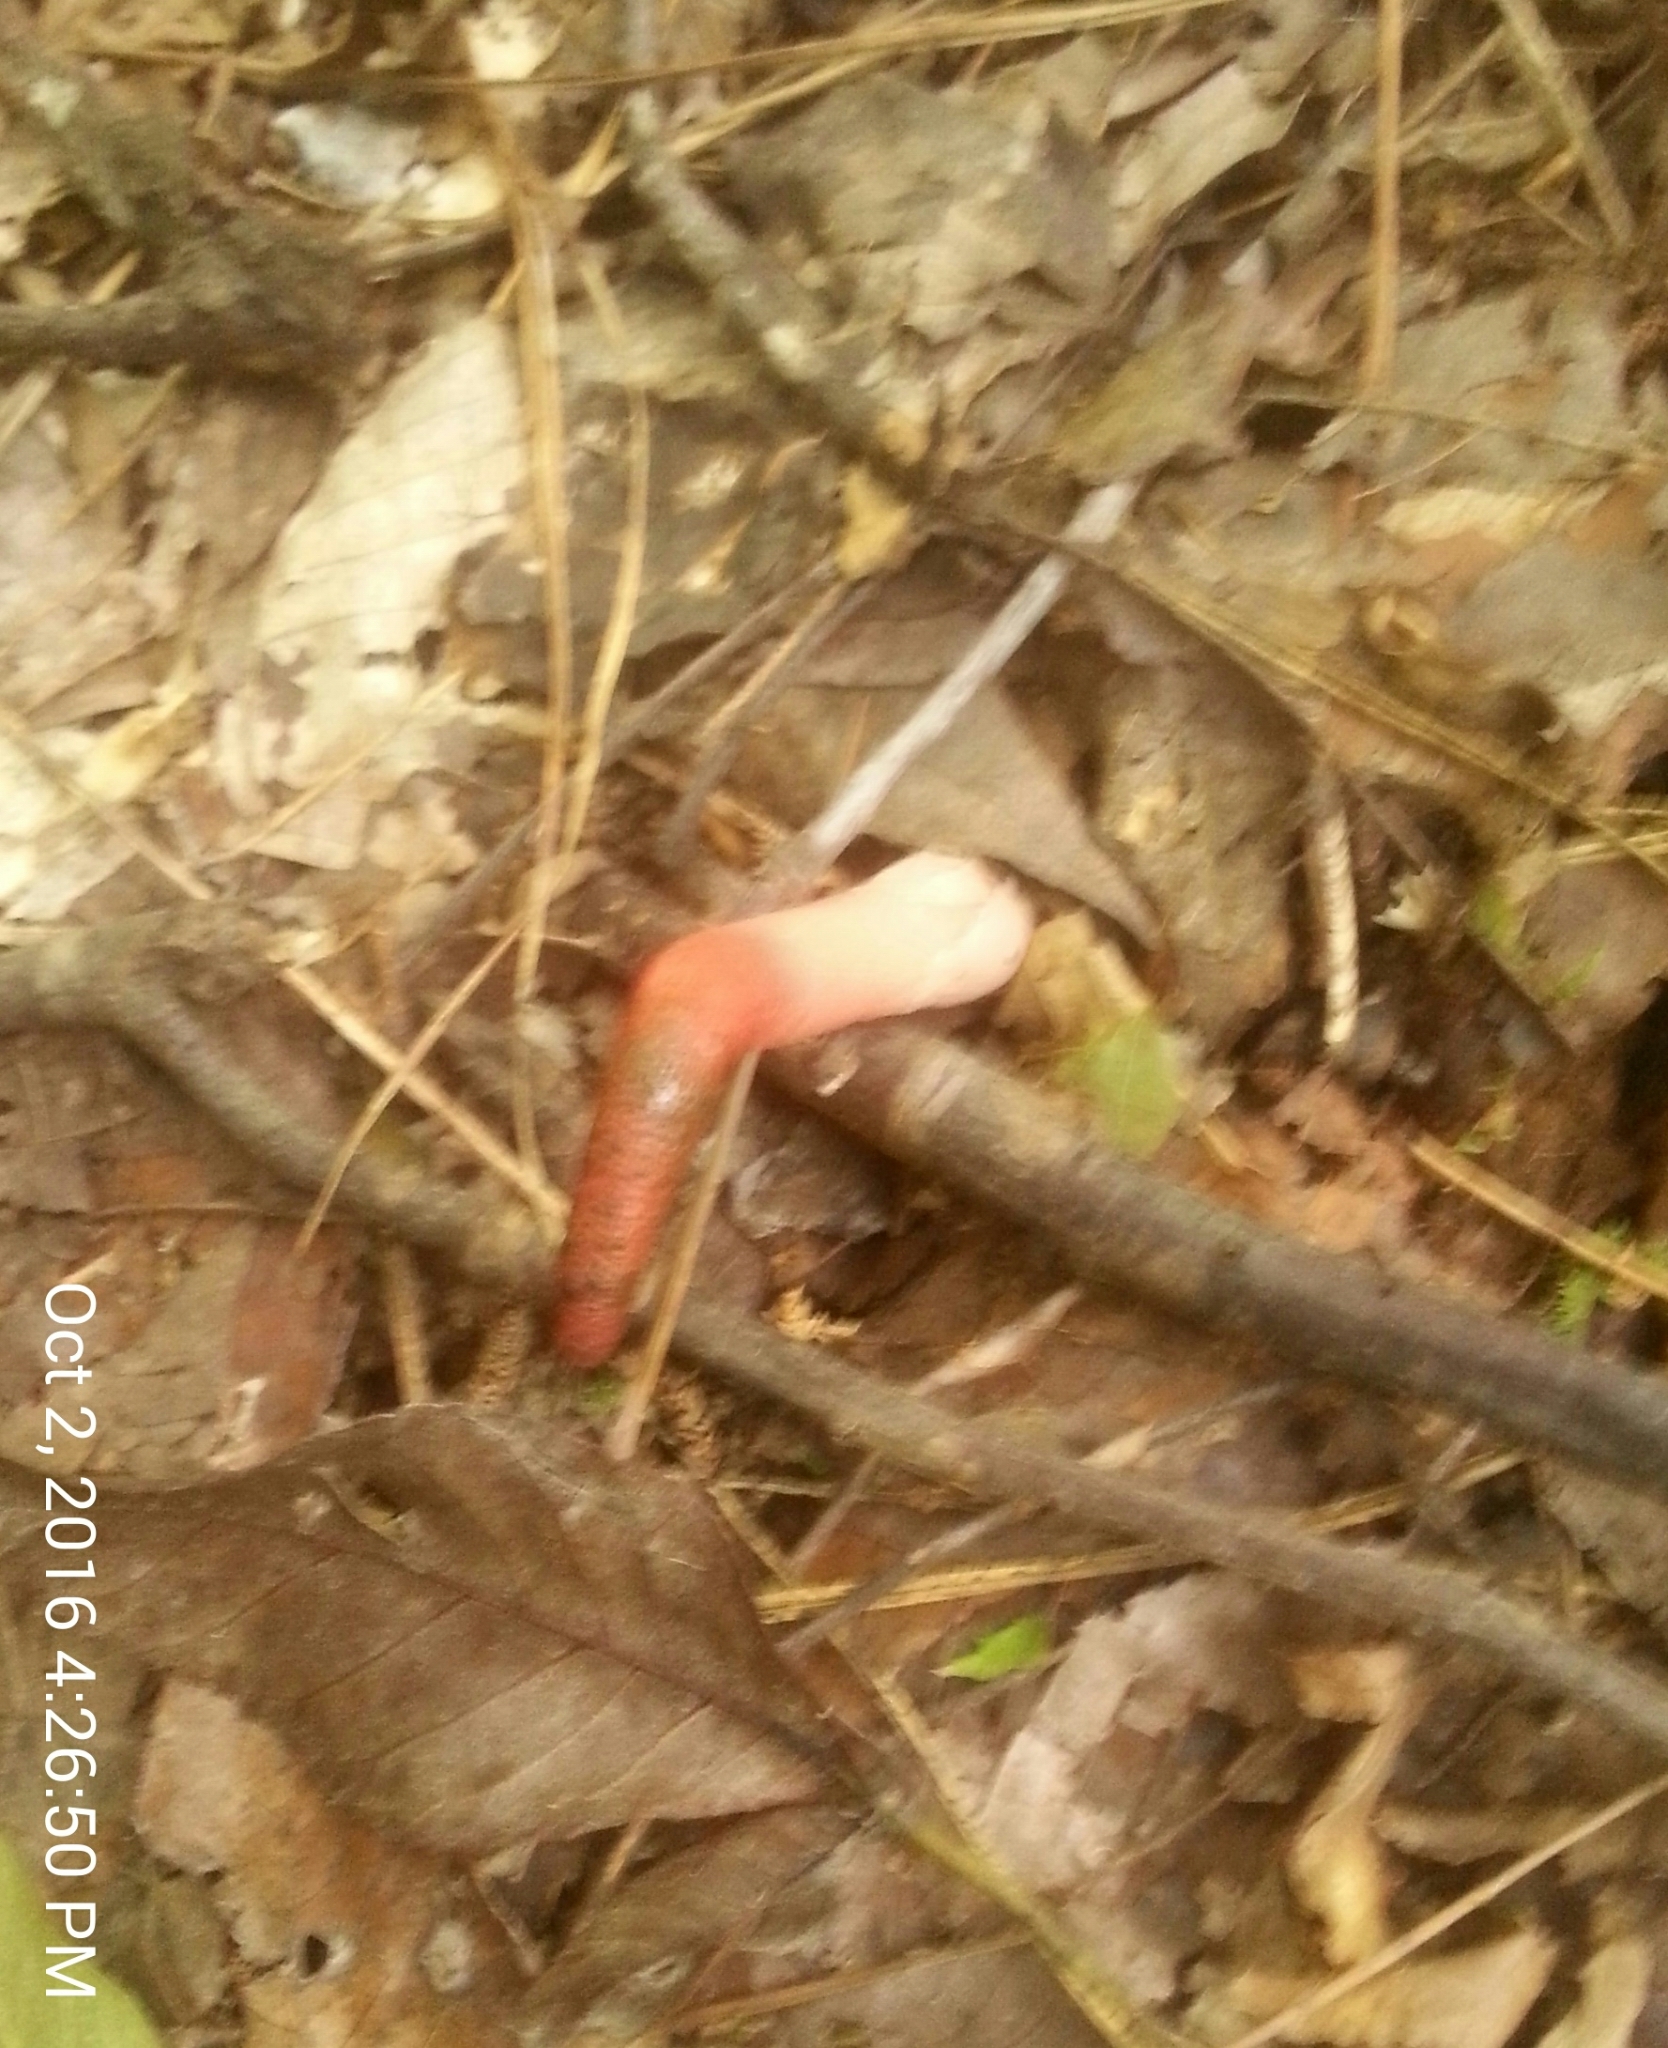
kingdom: Fungi
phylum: Basidiomycota
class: Agaricomycetes
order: Phallales
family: Phallaceae
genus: Mutinus
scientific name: Mutinus elegans
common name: Devil's dipstick
